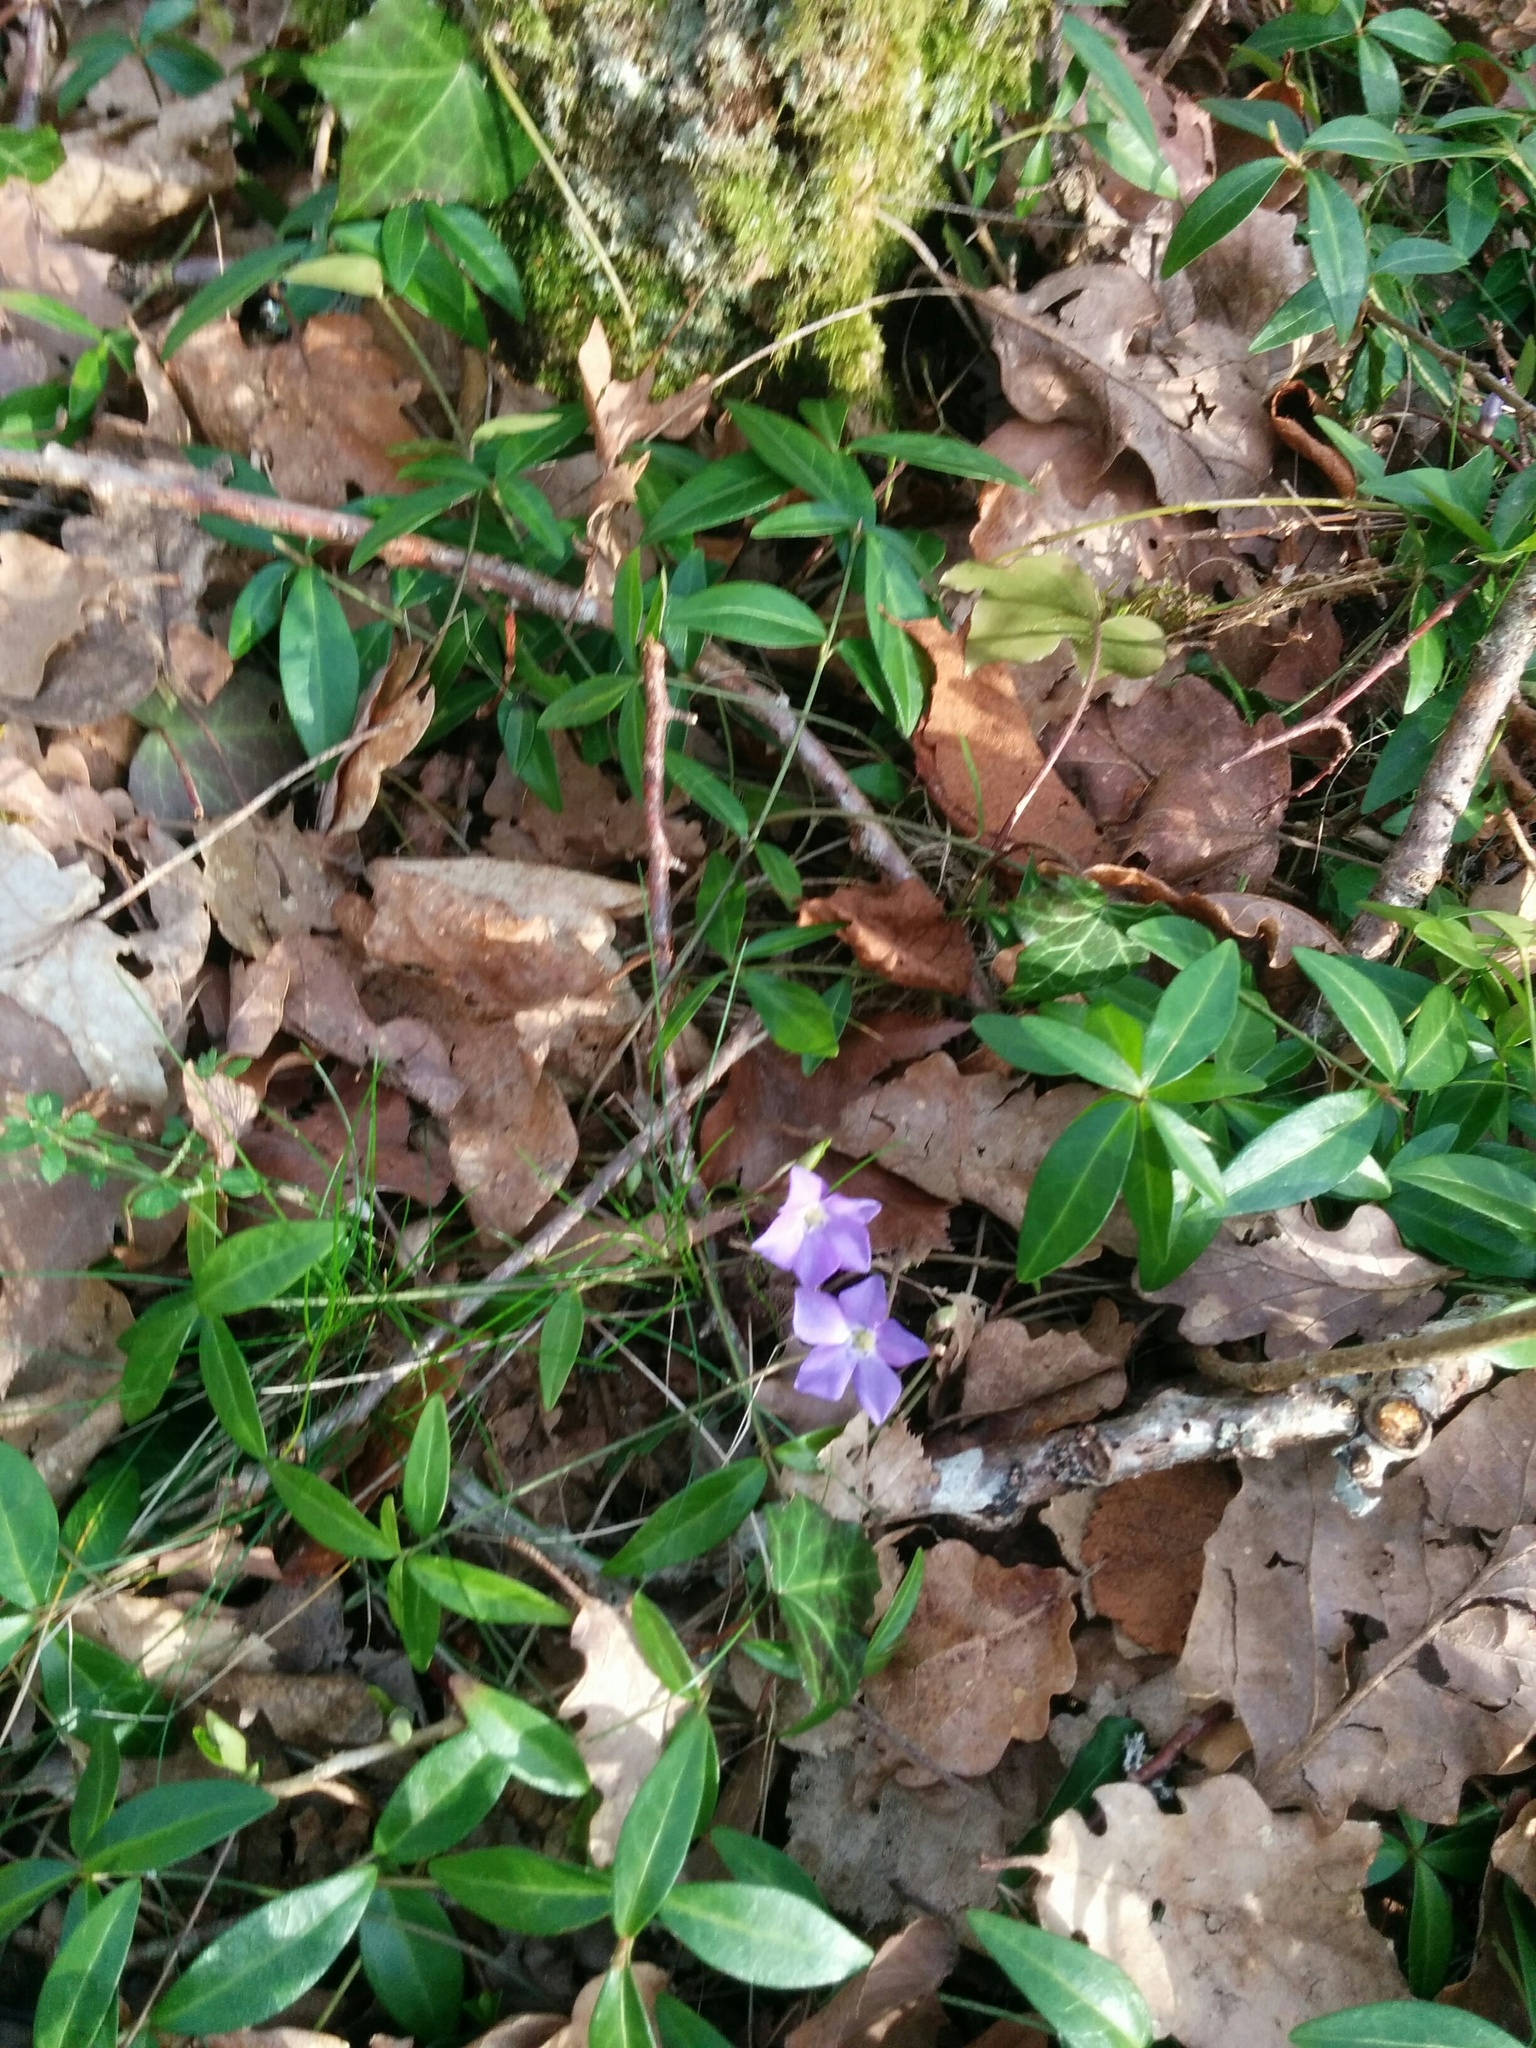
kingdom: Plantae
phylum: Tracheophyta
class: Magnoliopsida
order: Gentianales
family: Apocynaceae
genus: Vinca
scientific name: Vinca minor
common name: Lesser periwinkle
